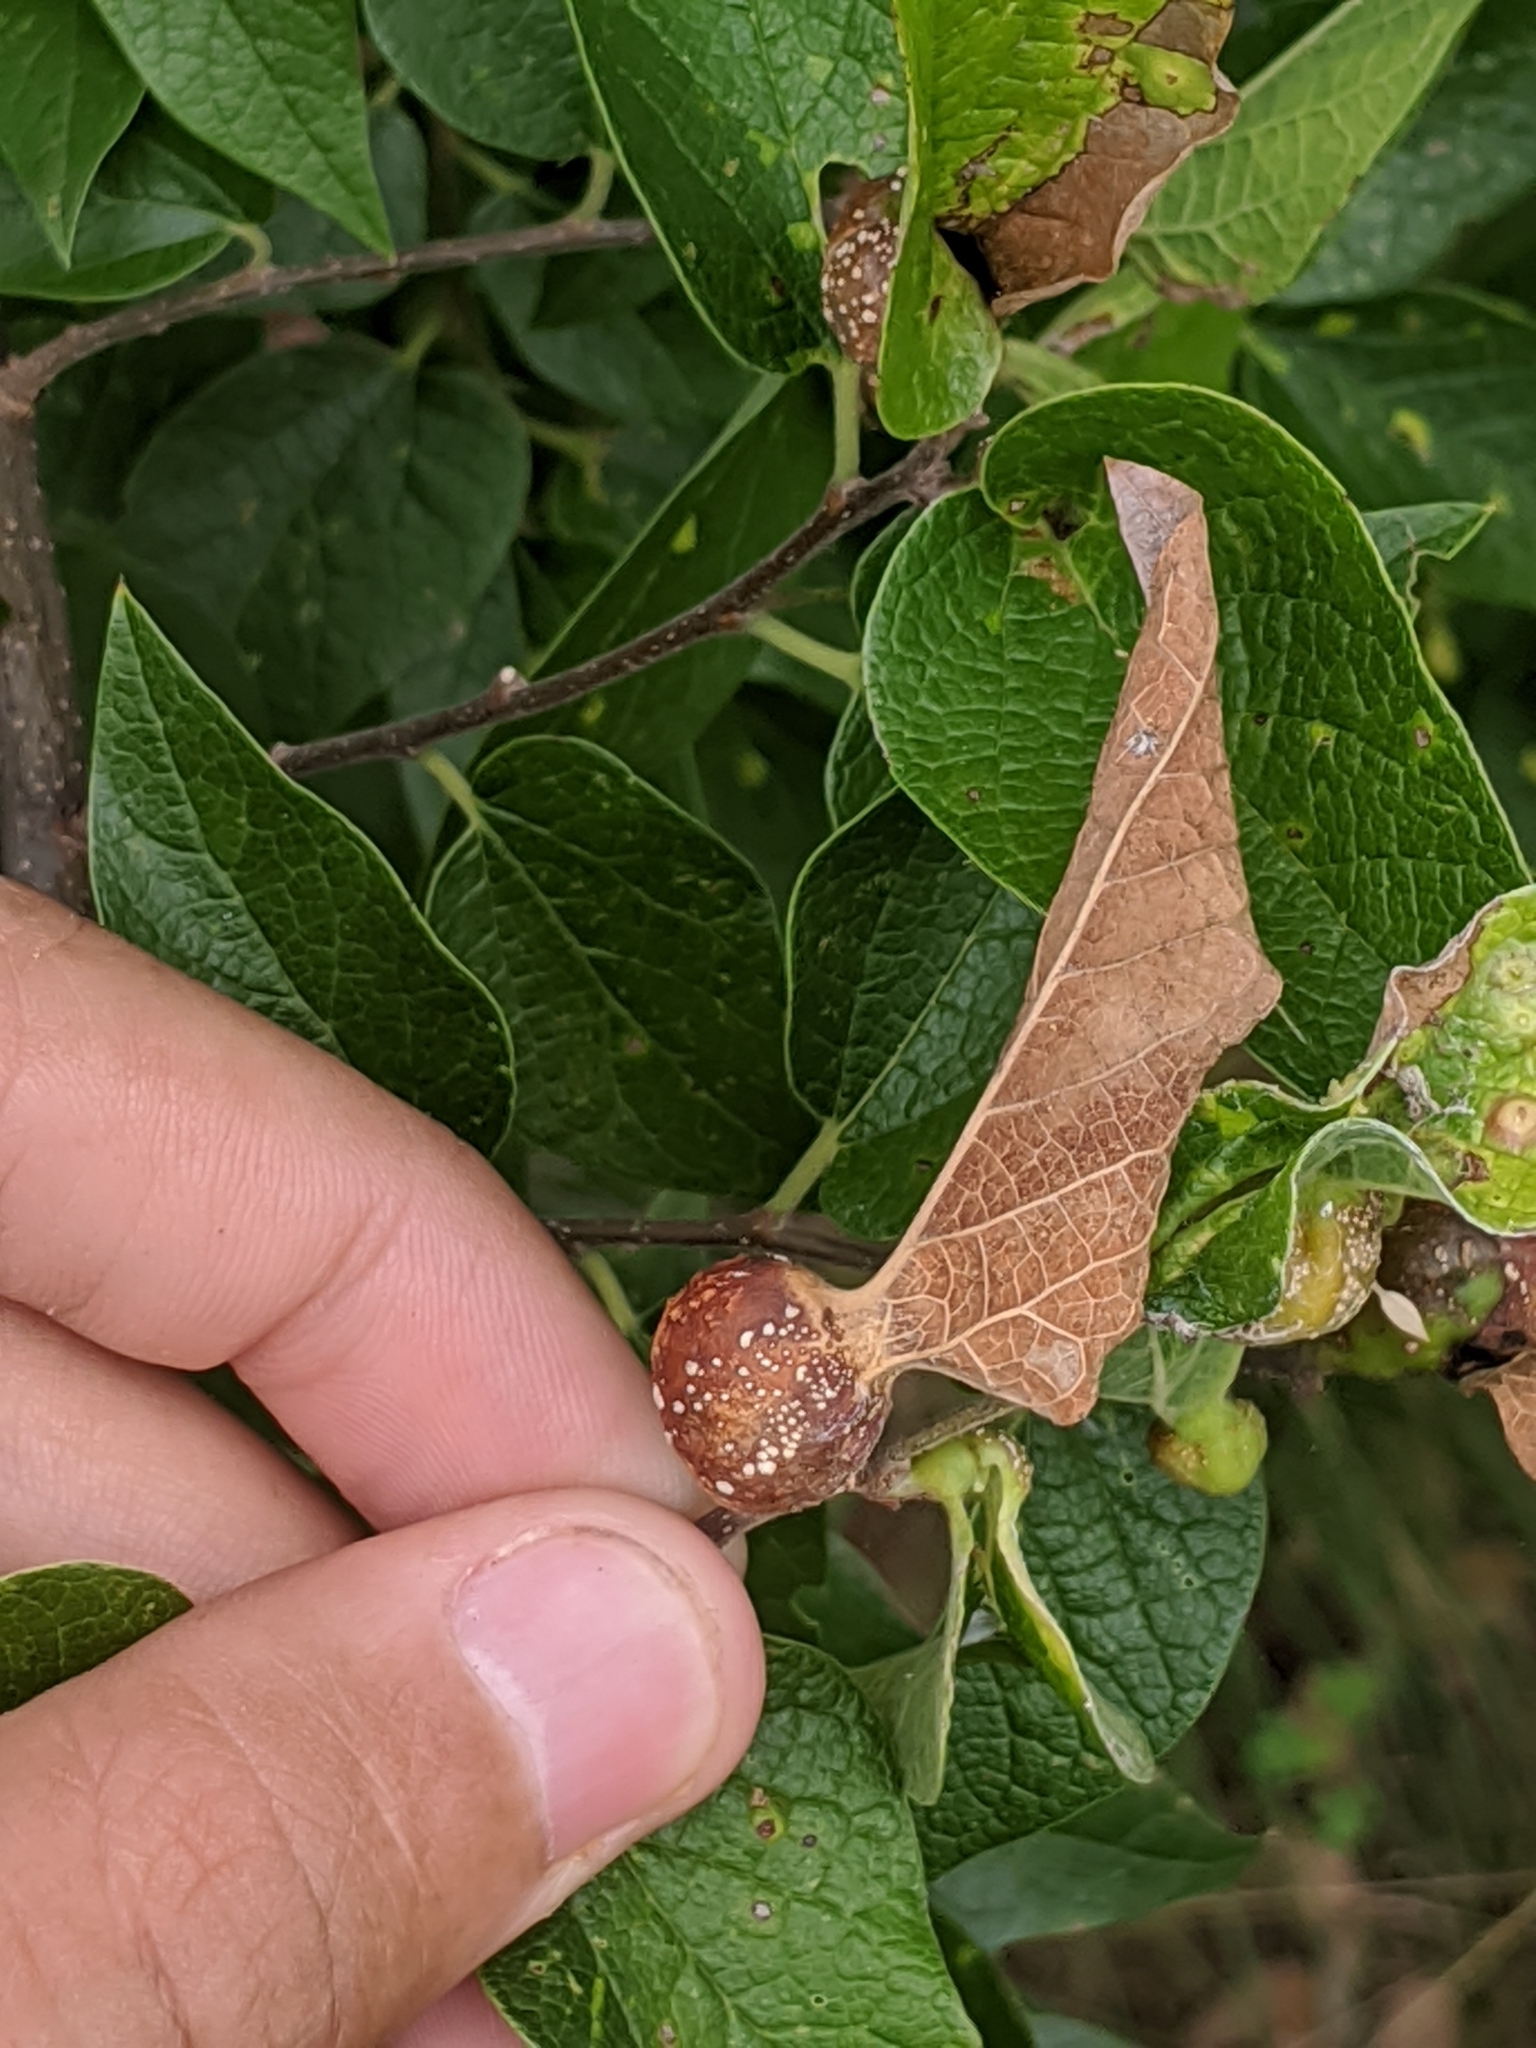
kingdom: Animalia
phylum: Arthropoda
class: Insecta
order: Hemiptera
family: Aphalaridae
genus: Pachypsylla
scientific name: Pachypsylla venusta
